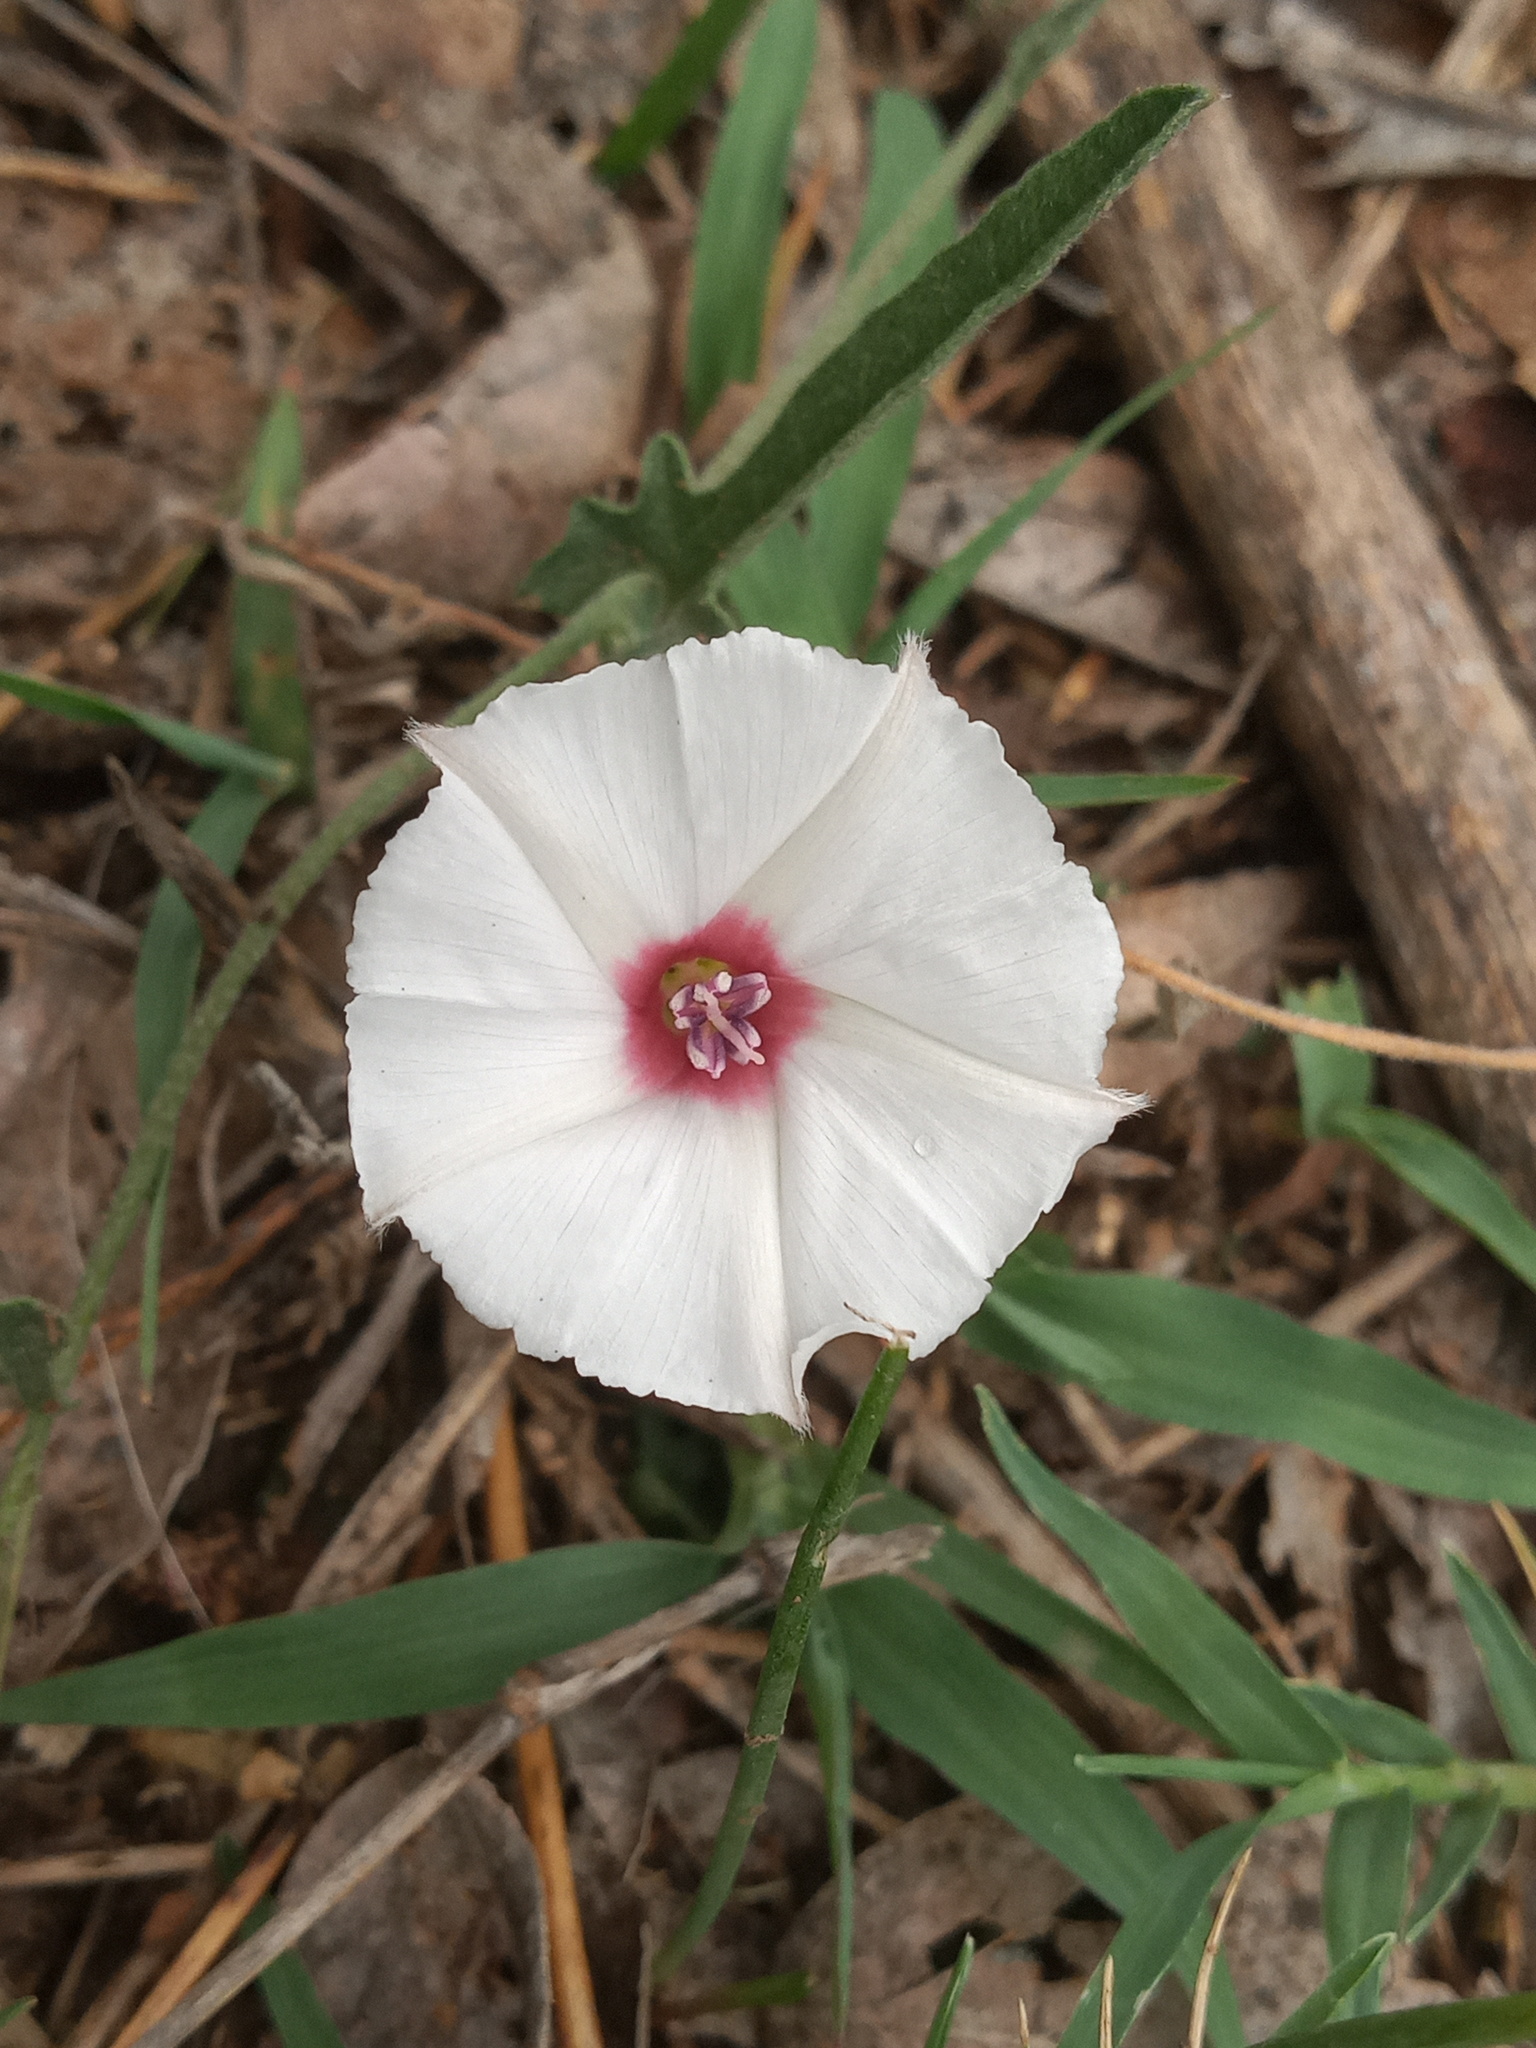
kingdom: Plantae
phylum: Tracheophyta
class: Magnoliopsida
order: Solanales
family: Convolvulaceae
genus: Convolvulus
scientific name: Convolvulus equitans
